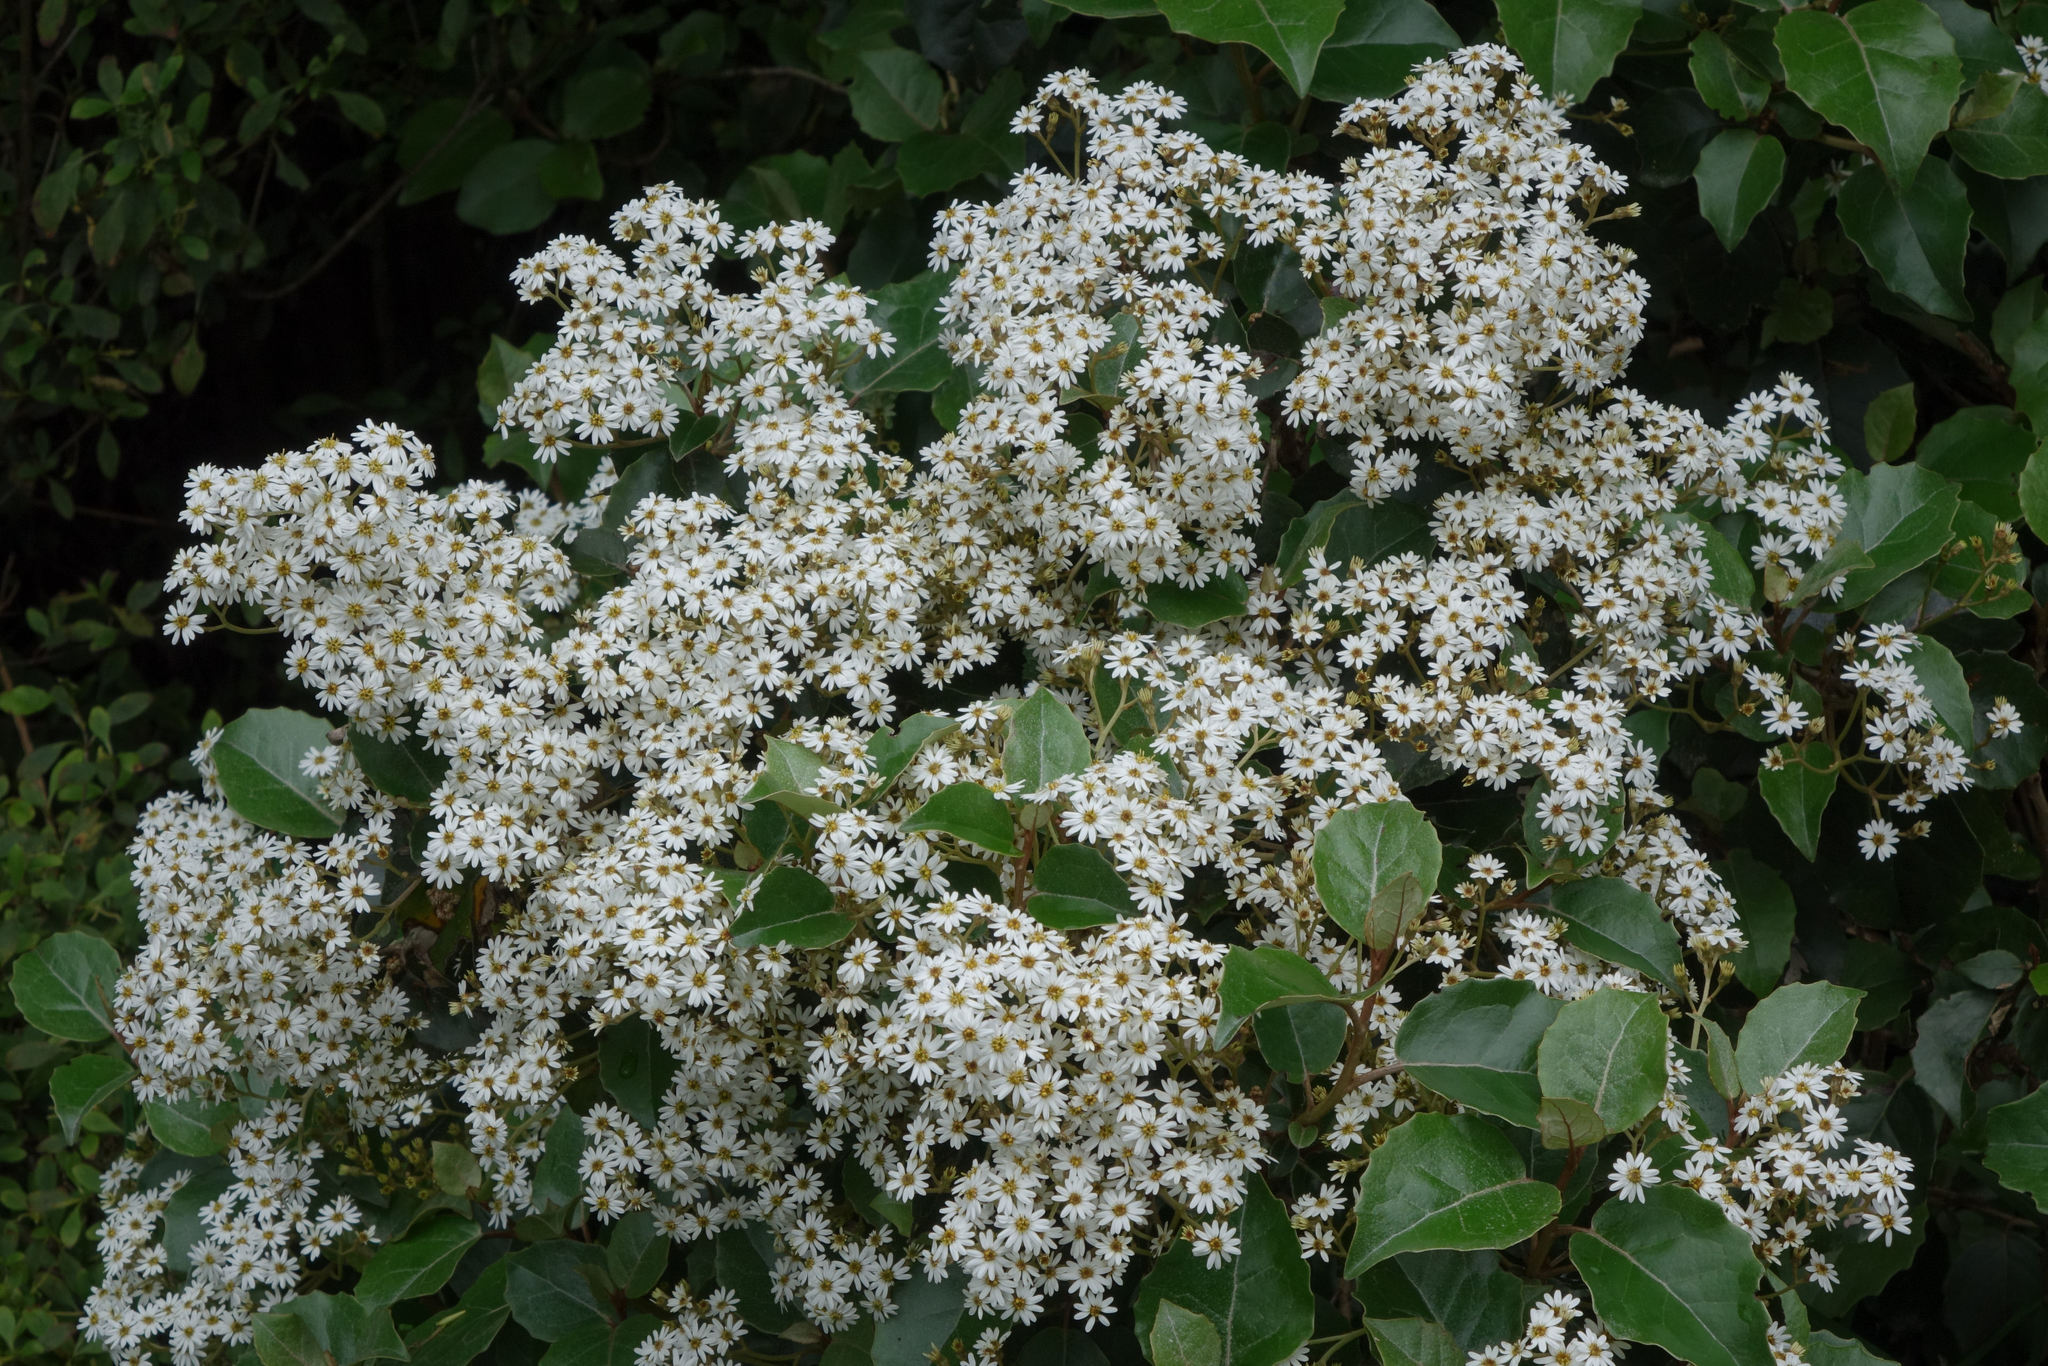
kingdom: Plantae
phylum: Tracheophyta
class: Magnoliopsida
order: Asterales
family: Asteraceae
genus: Olearia
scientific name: Olearia arborescens
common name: Glossy tree daisy
